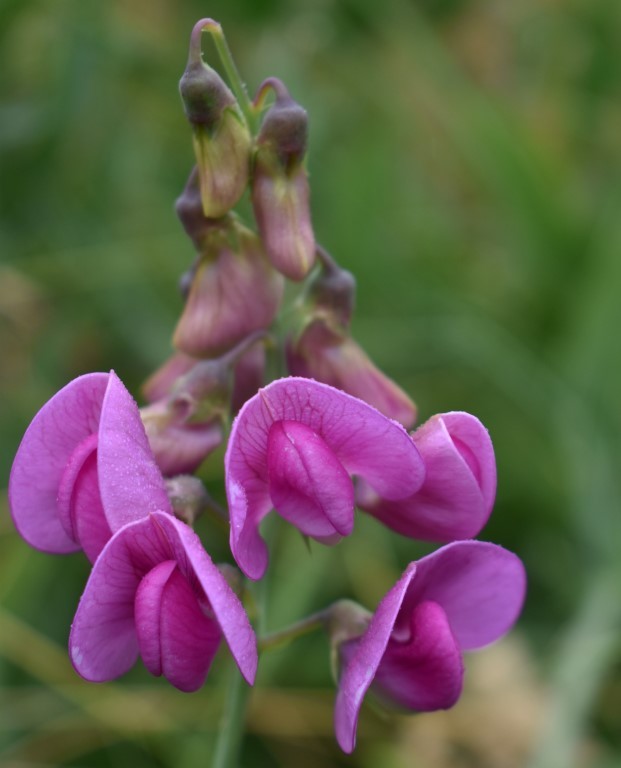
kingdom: Plantae
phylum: Tracheophyta
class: Magnoliopsida
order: Fabales
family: Fabaceae
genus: Lathyrus
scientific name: Lathyrus latifolius
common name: Perennial pea
